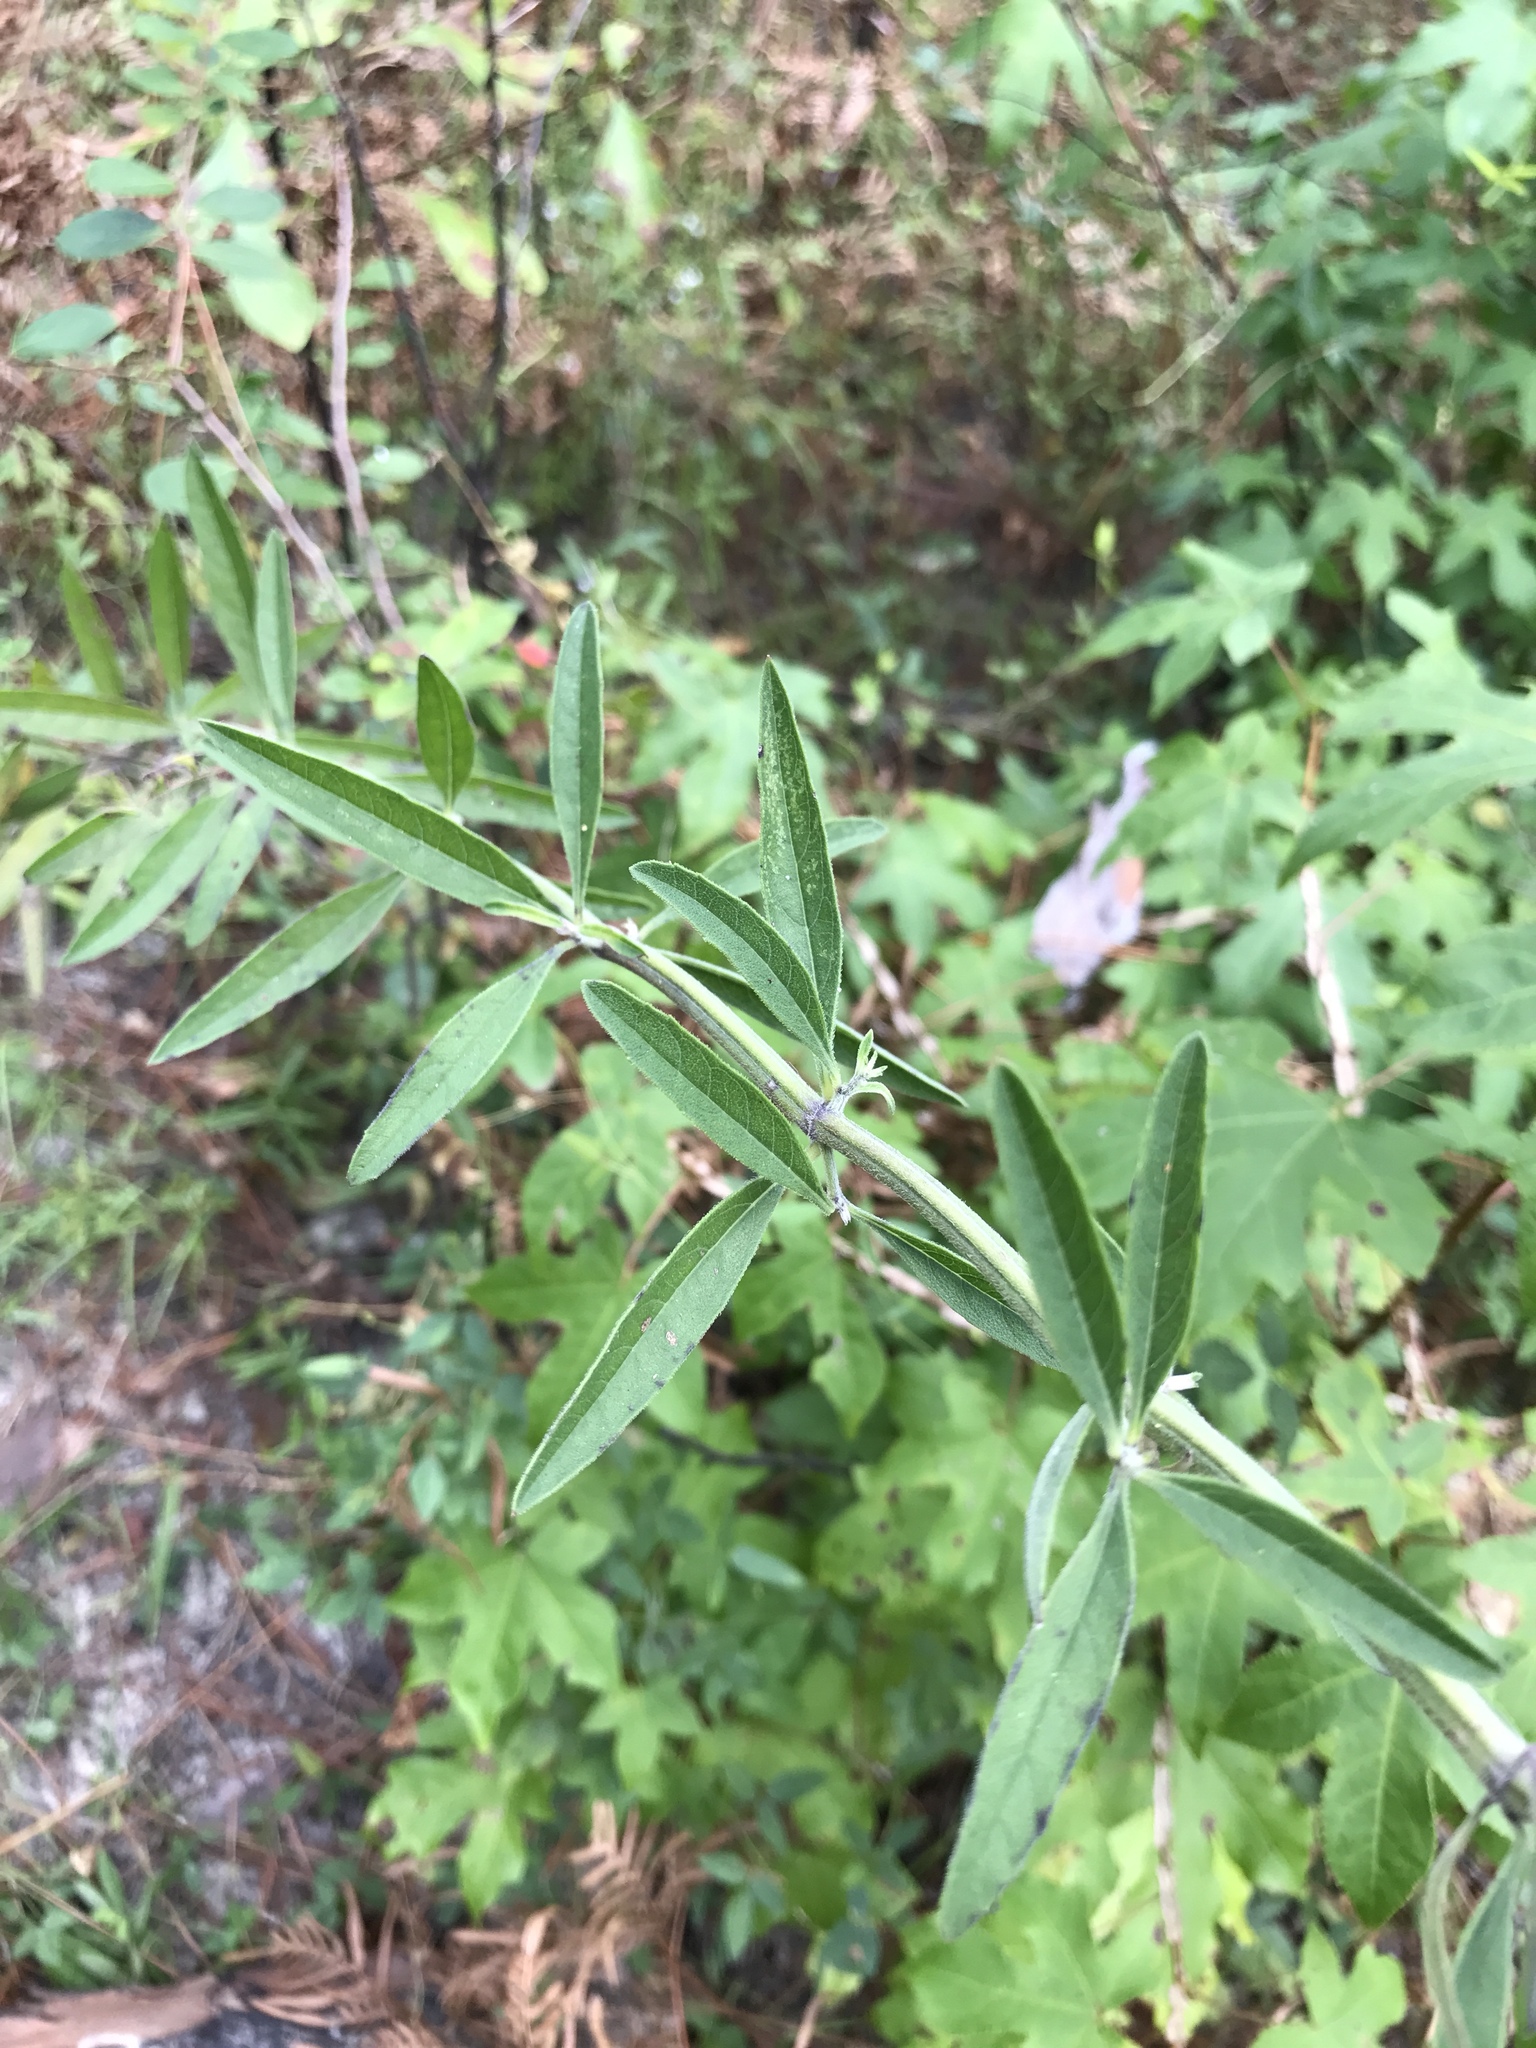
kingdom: Plantae
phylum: Tracheophyta
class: Magnoliopsida
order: Lamiales
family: Lamiaceae
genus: Salvia
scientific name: Salvia azurea
